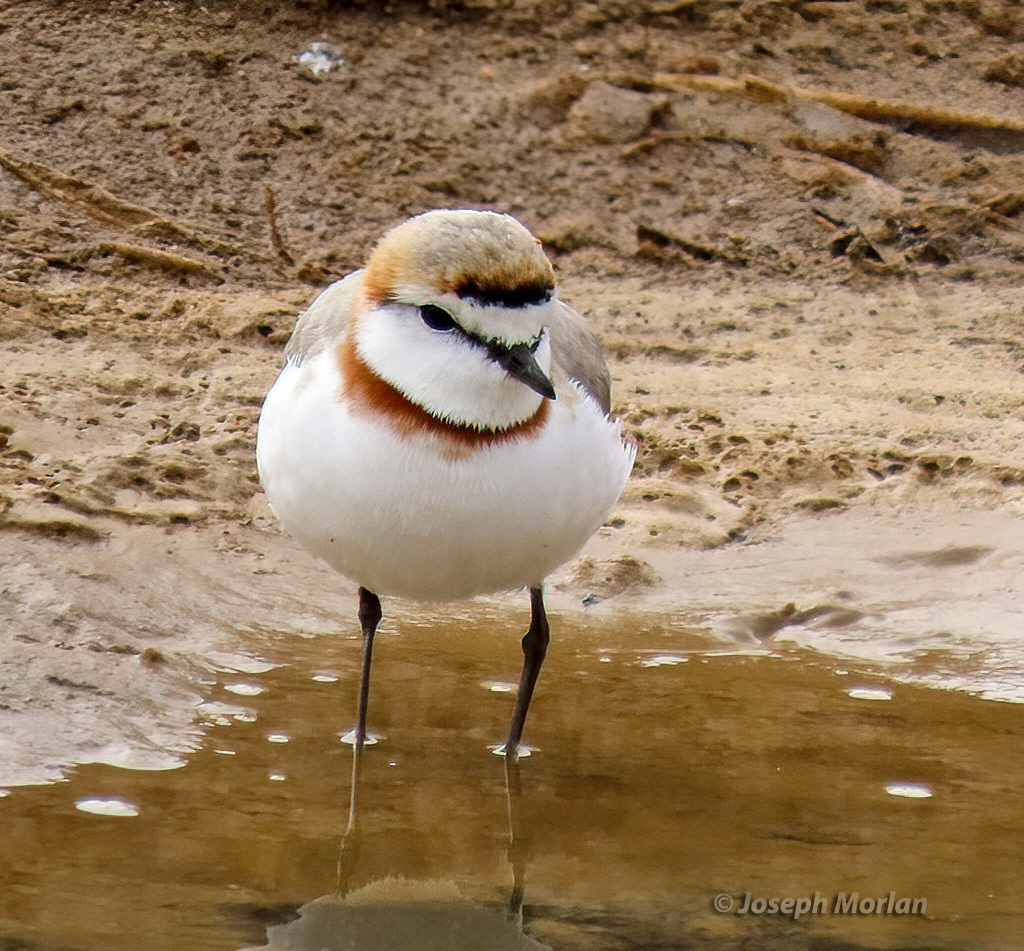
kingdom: Animalia
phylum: Chordata
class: Aves
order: Charadriiformes
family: Charadriidae
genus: Anarhynchus
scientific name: Anarhynchus
